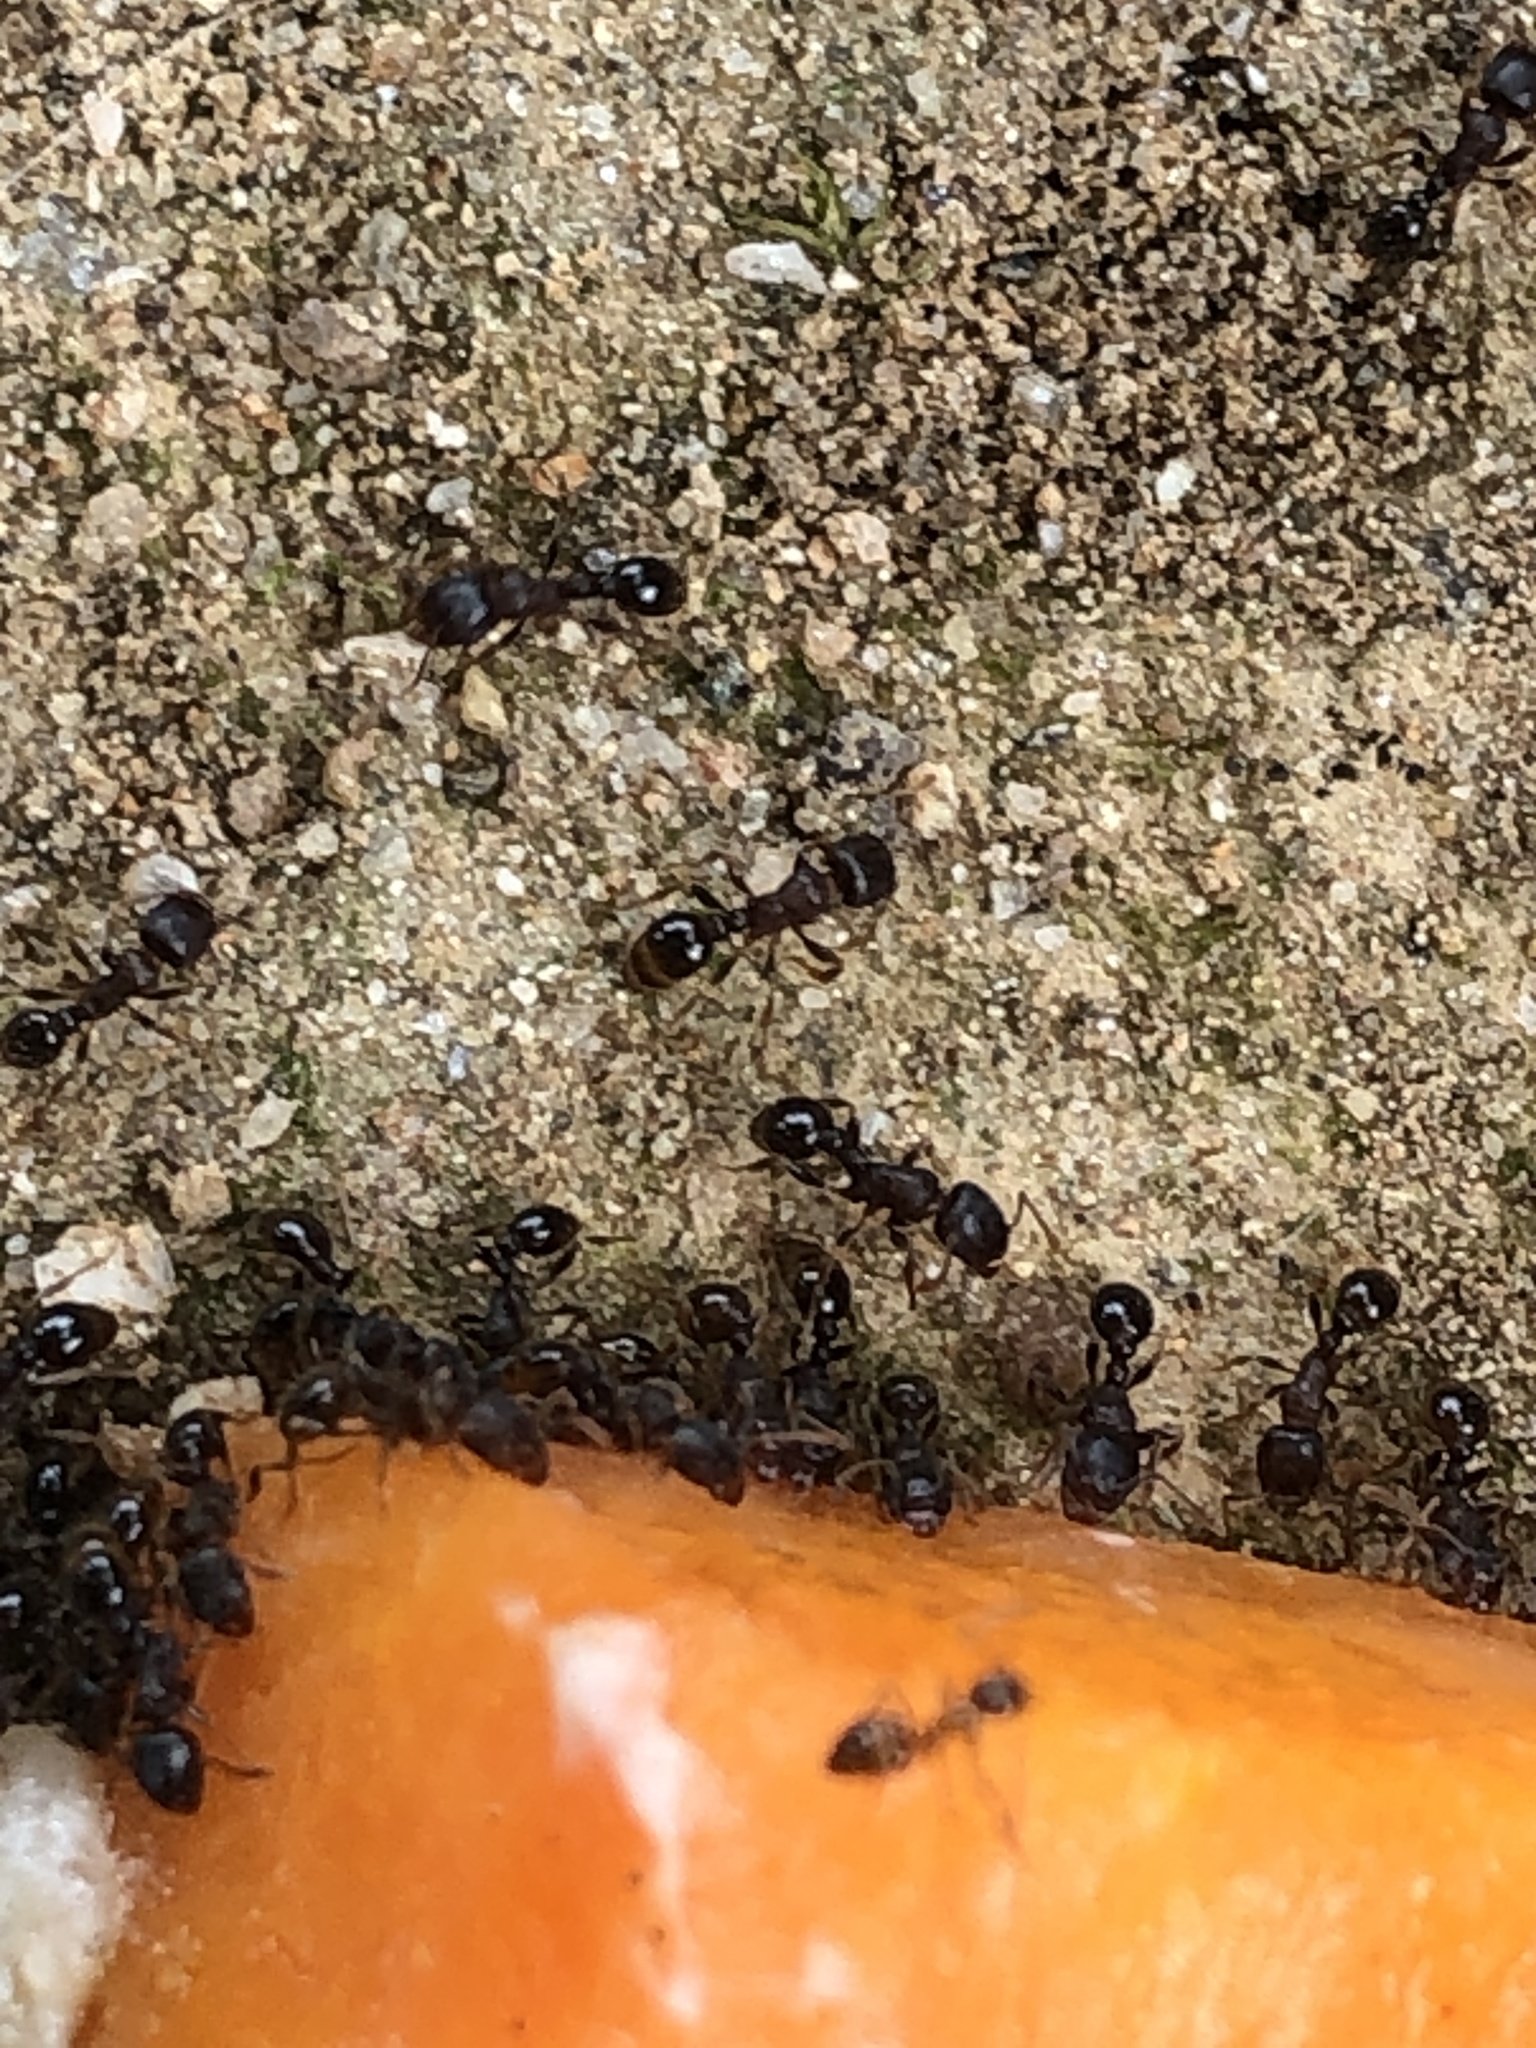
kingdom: Animalia
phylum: Arthropoda
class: Insecta
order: Hymenoptera
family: Formicidae
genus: Tetramorium
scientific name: Tetramorium tsushimae
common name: Ant
